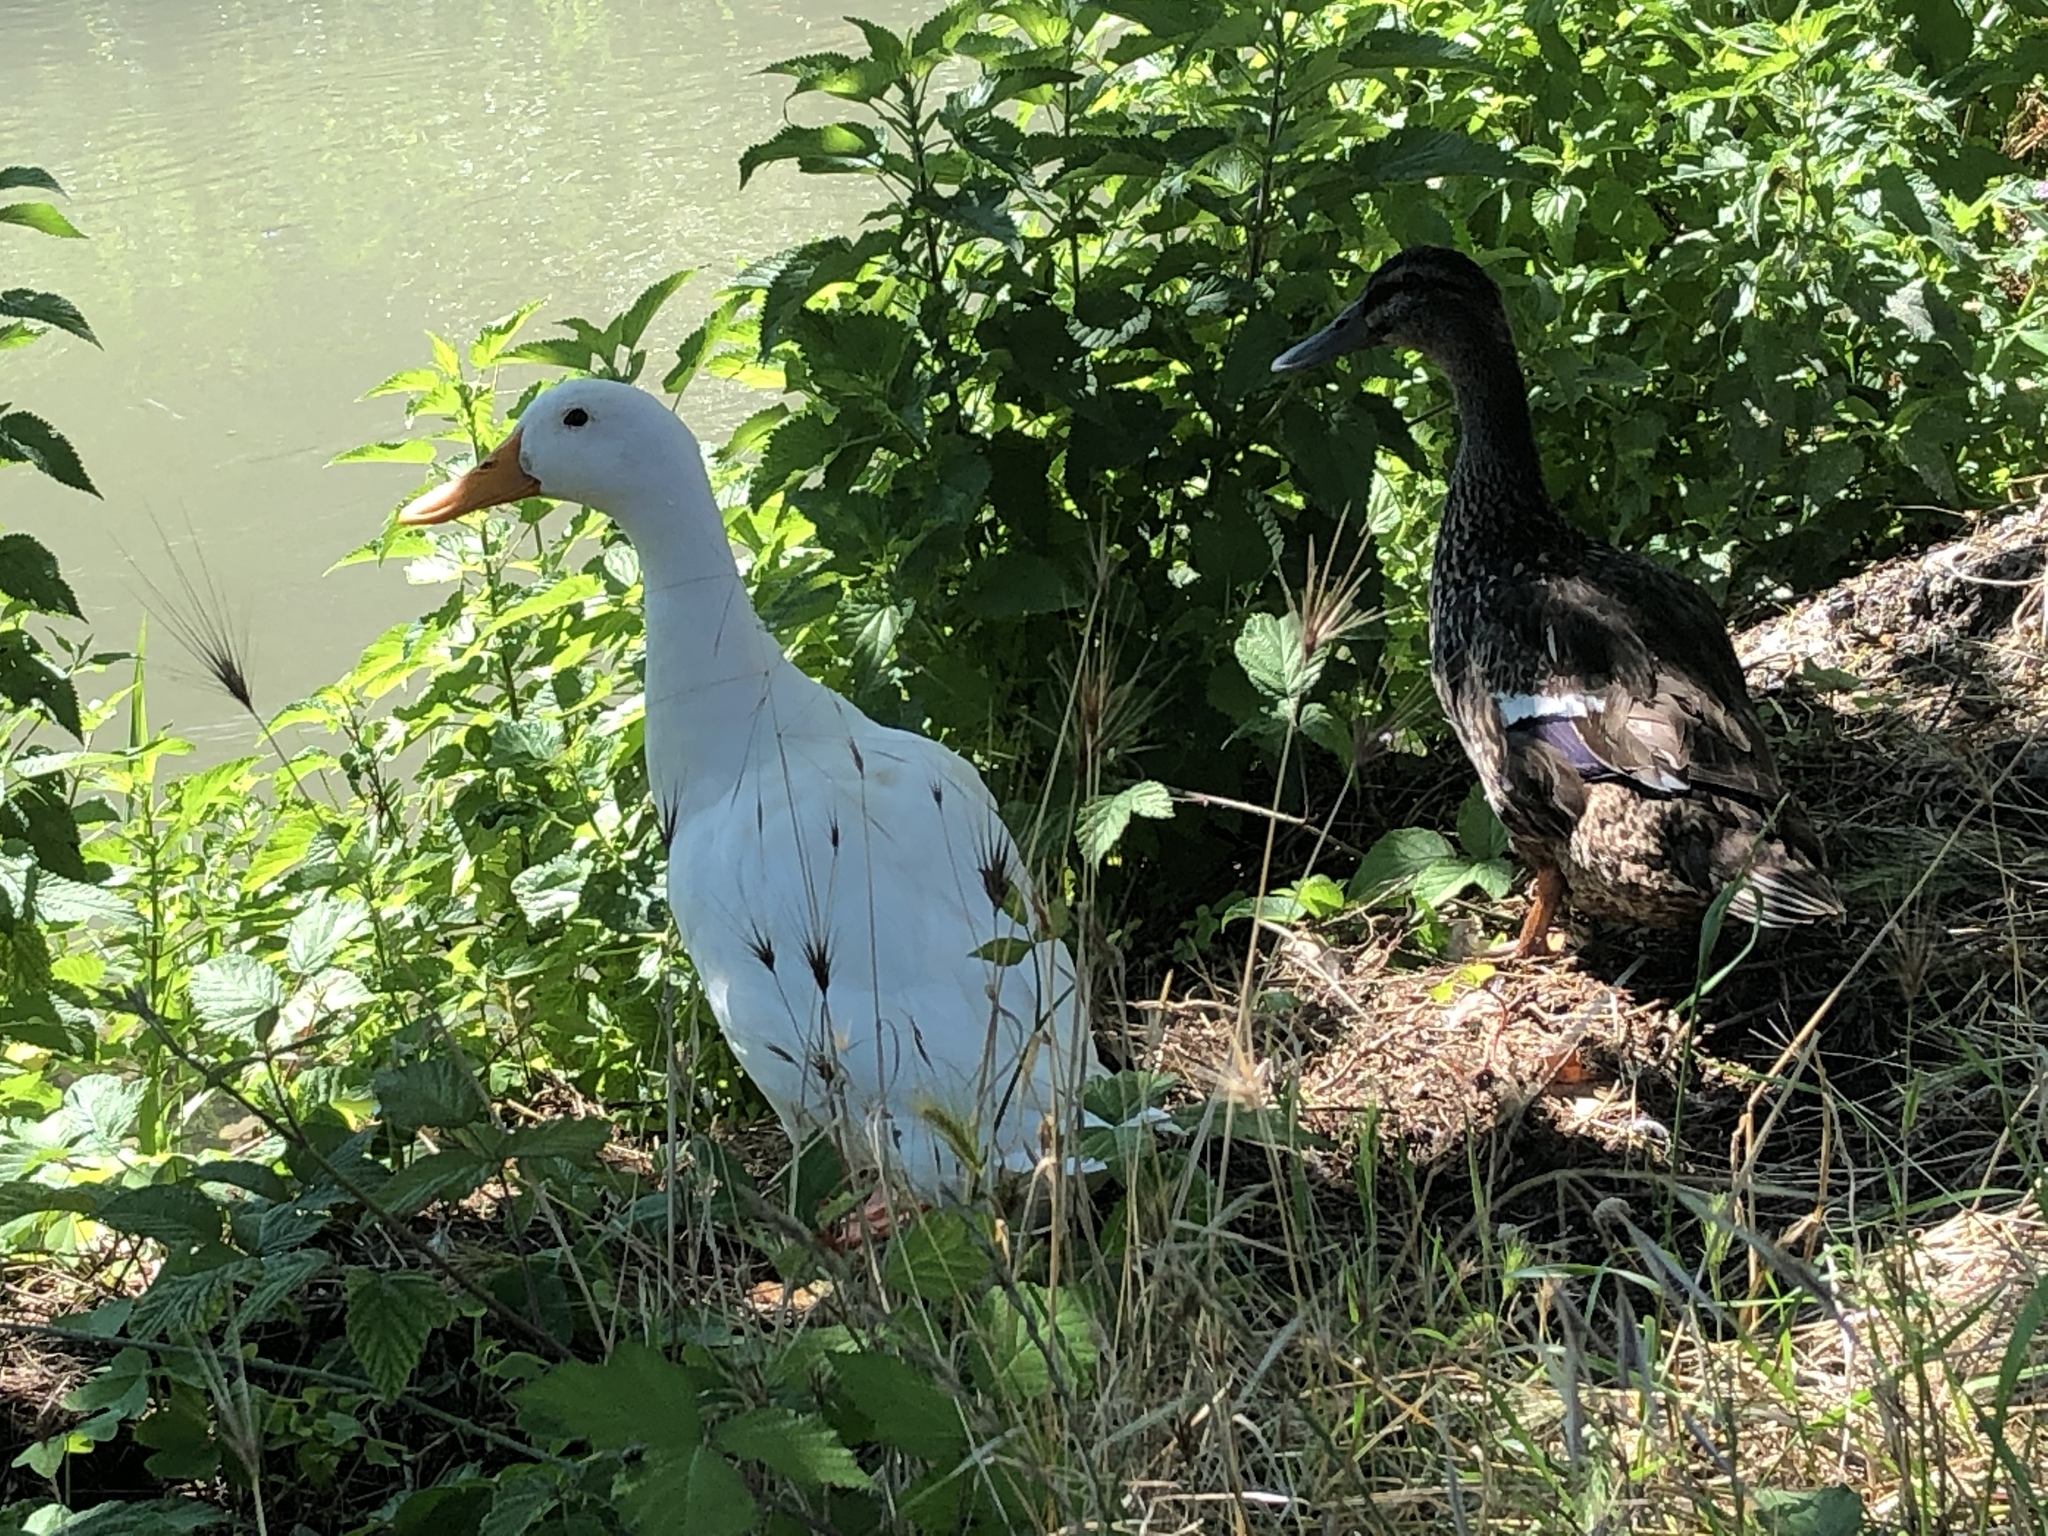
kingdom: Animalia
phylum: Chordata
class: Aves
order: Anseriformes
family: Anatidae
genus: Anas
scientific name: Anas platyrhynchos
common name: Mallard
